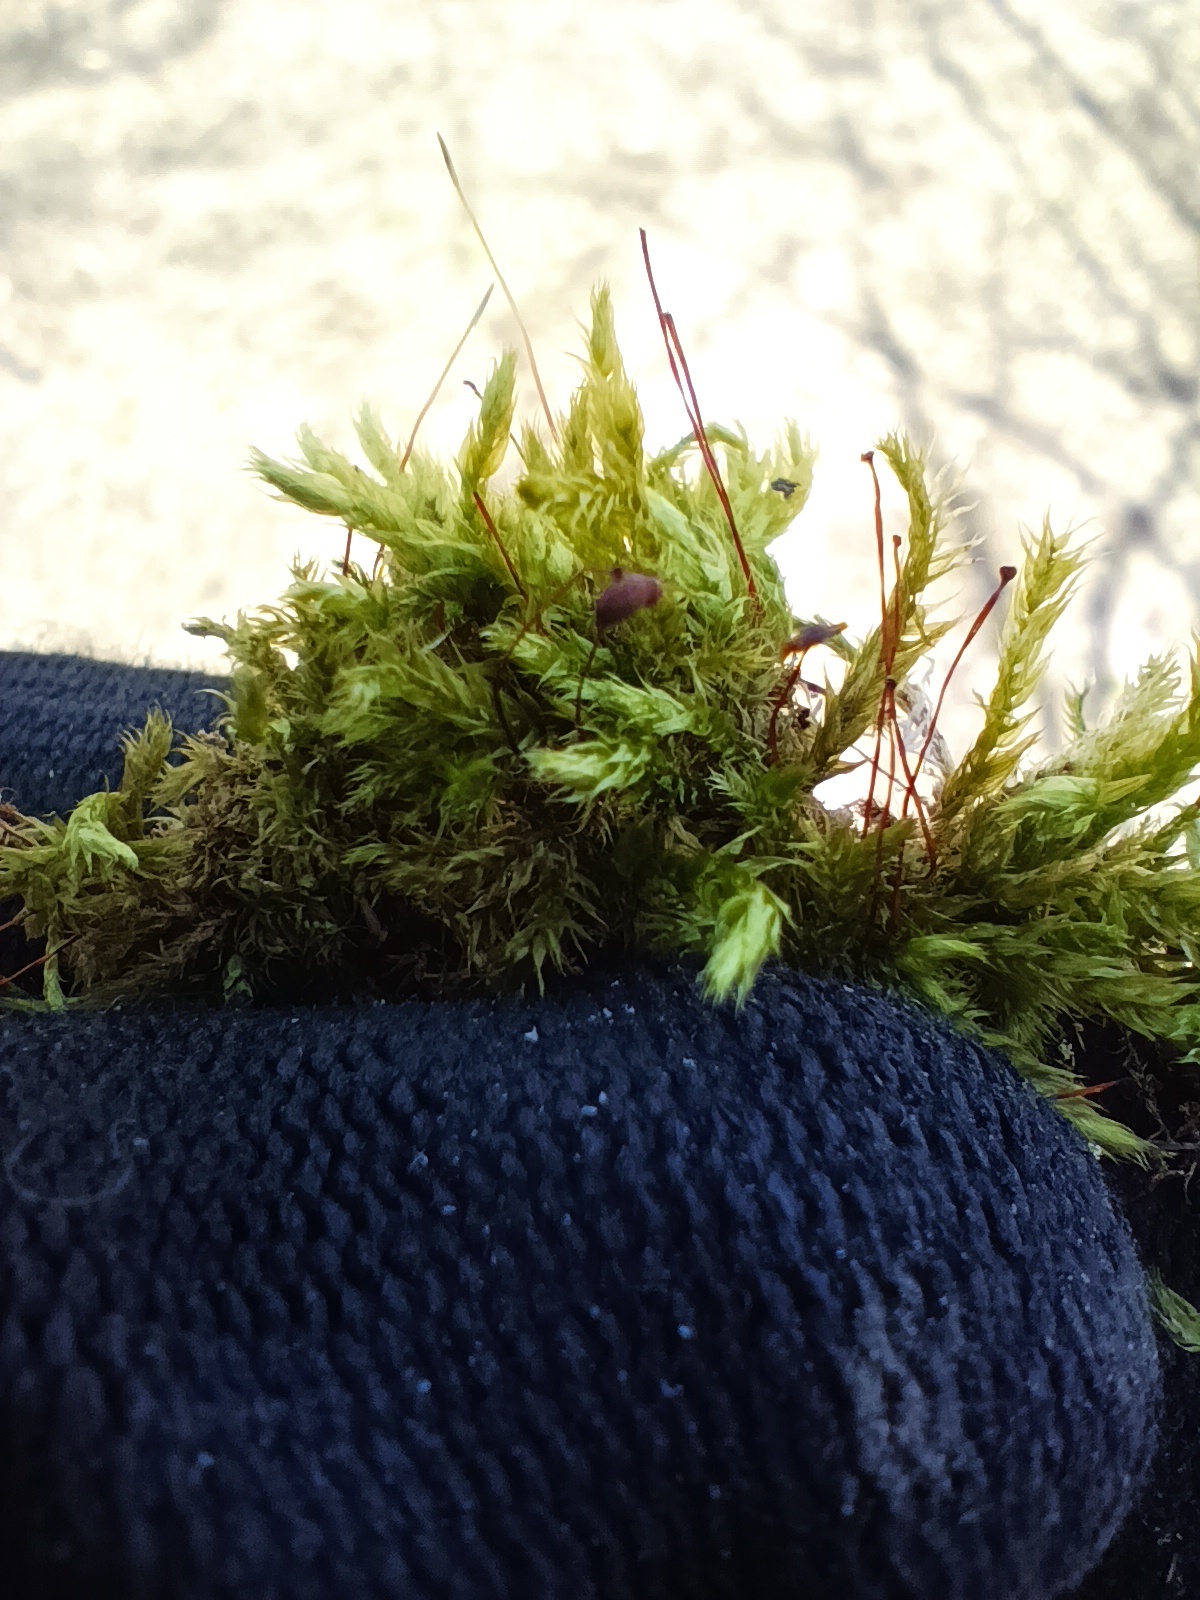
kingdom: Plantae
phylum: Bryophyta
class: Bryopsida
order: Hypnales
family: Climaciaceae
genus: Climacium
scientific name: Climacium dendroides
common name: Northern tree moss
